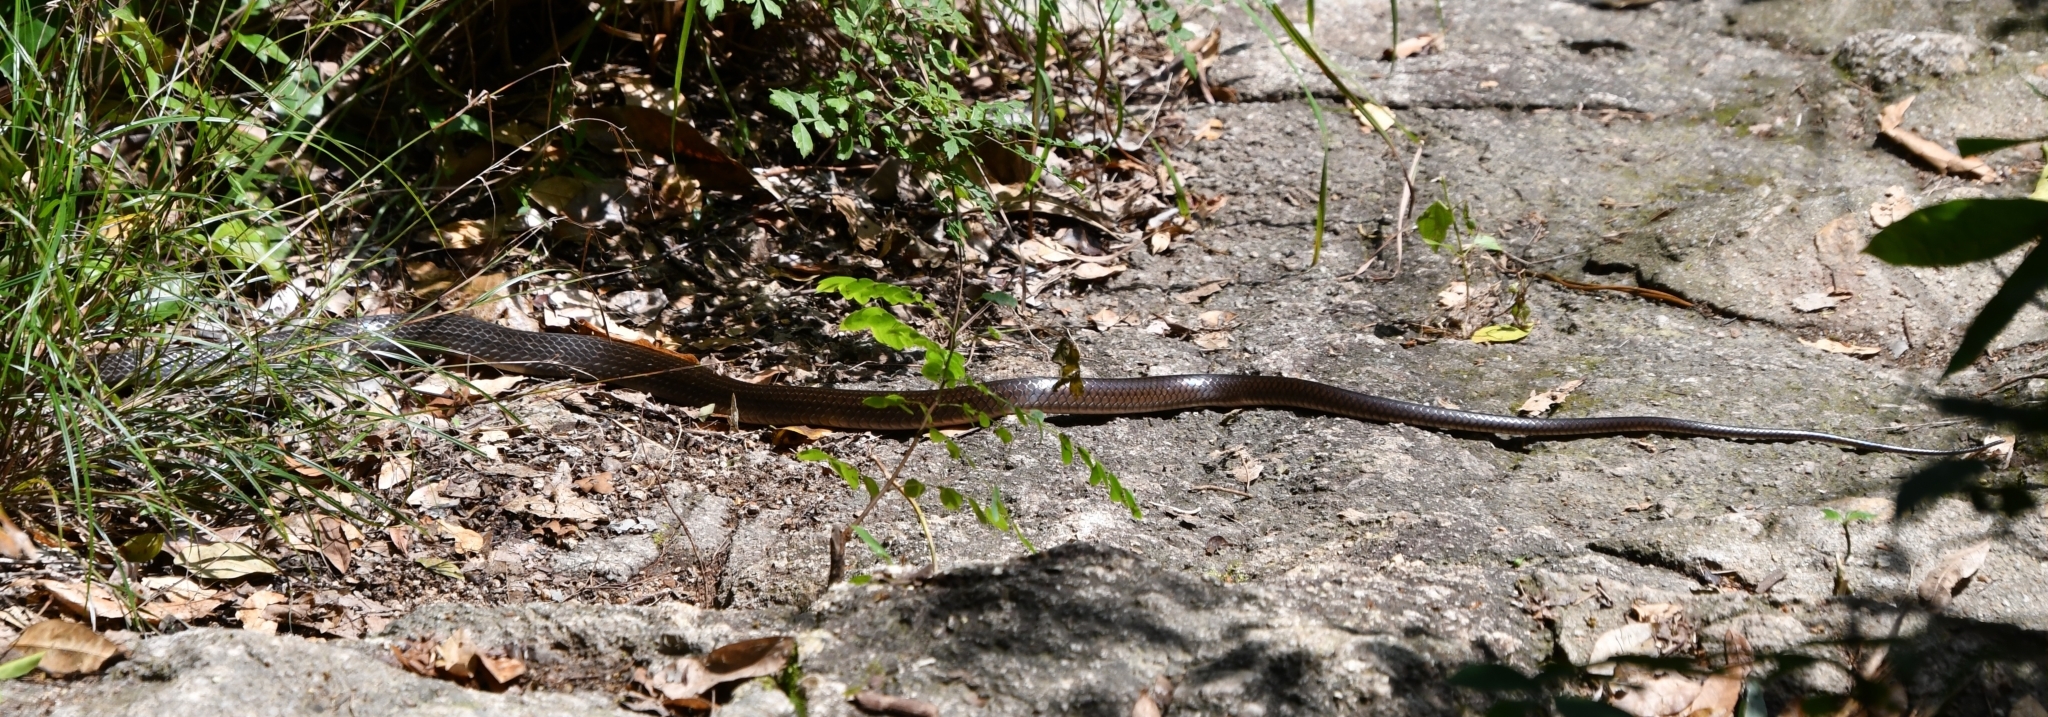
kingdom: Animalia
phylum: Chordata
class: Squamata
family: Colubridae
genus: Ptyas
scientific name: Ptyas korros
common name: Indo-chinese rat snake
